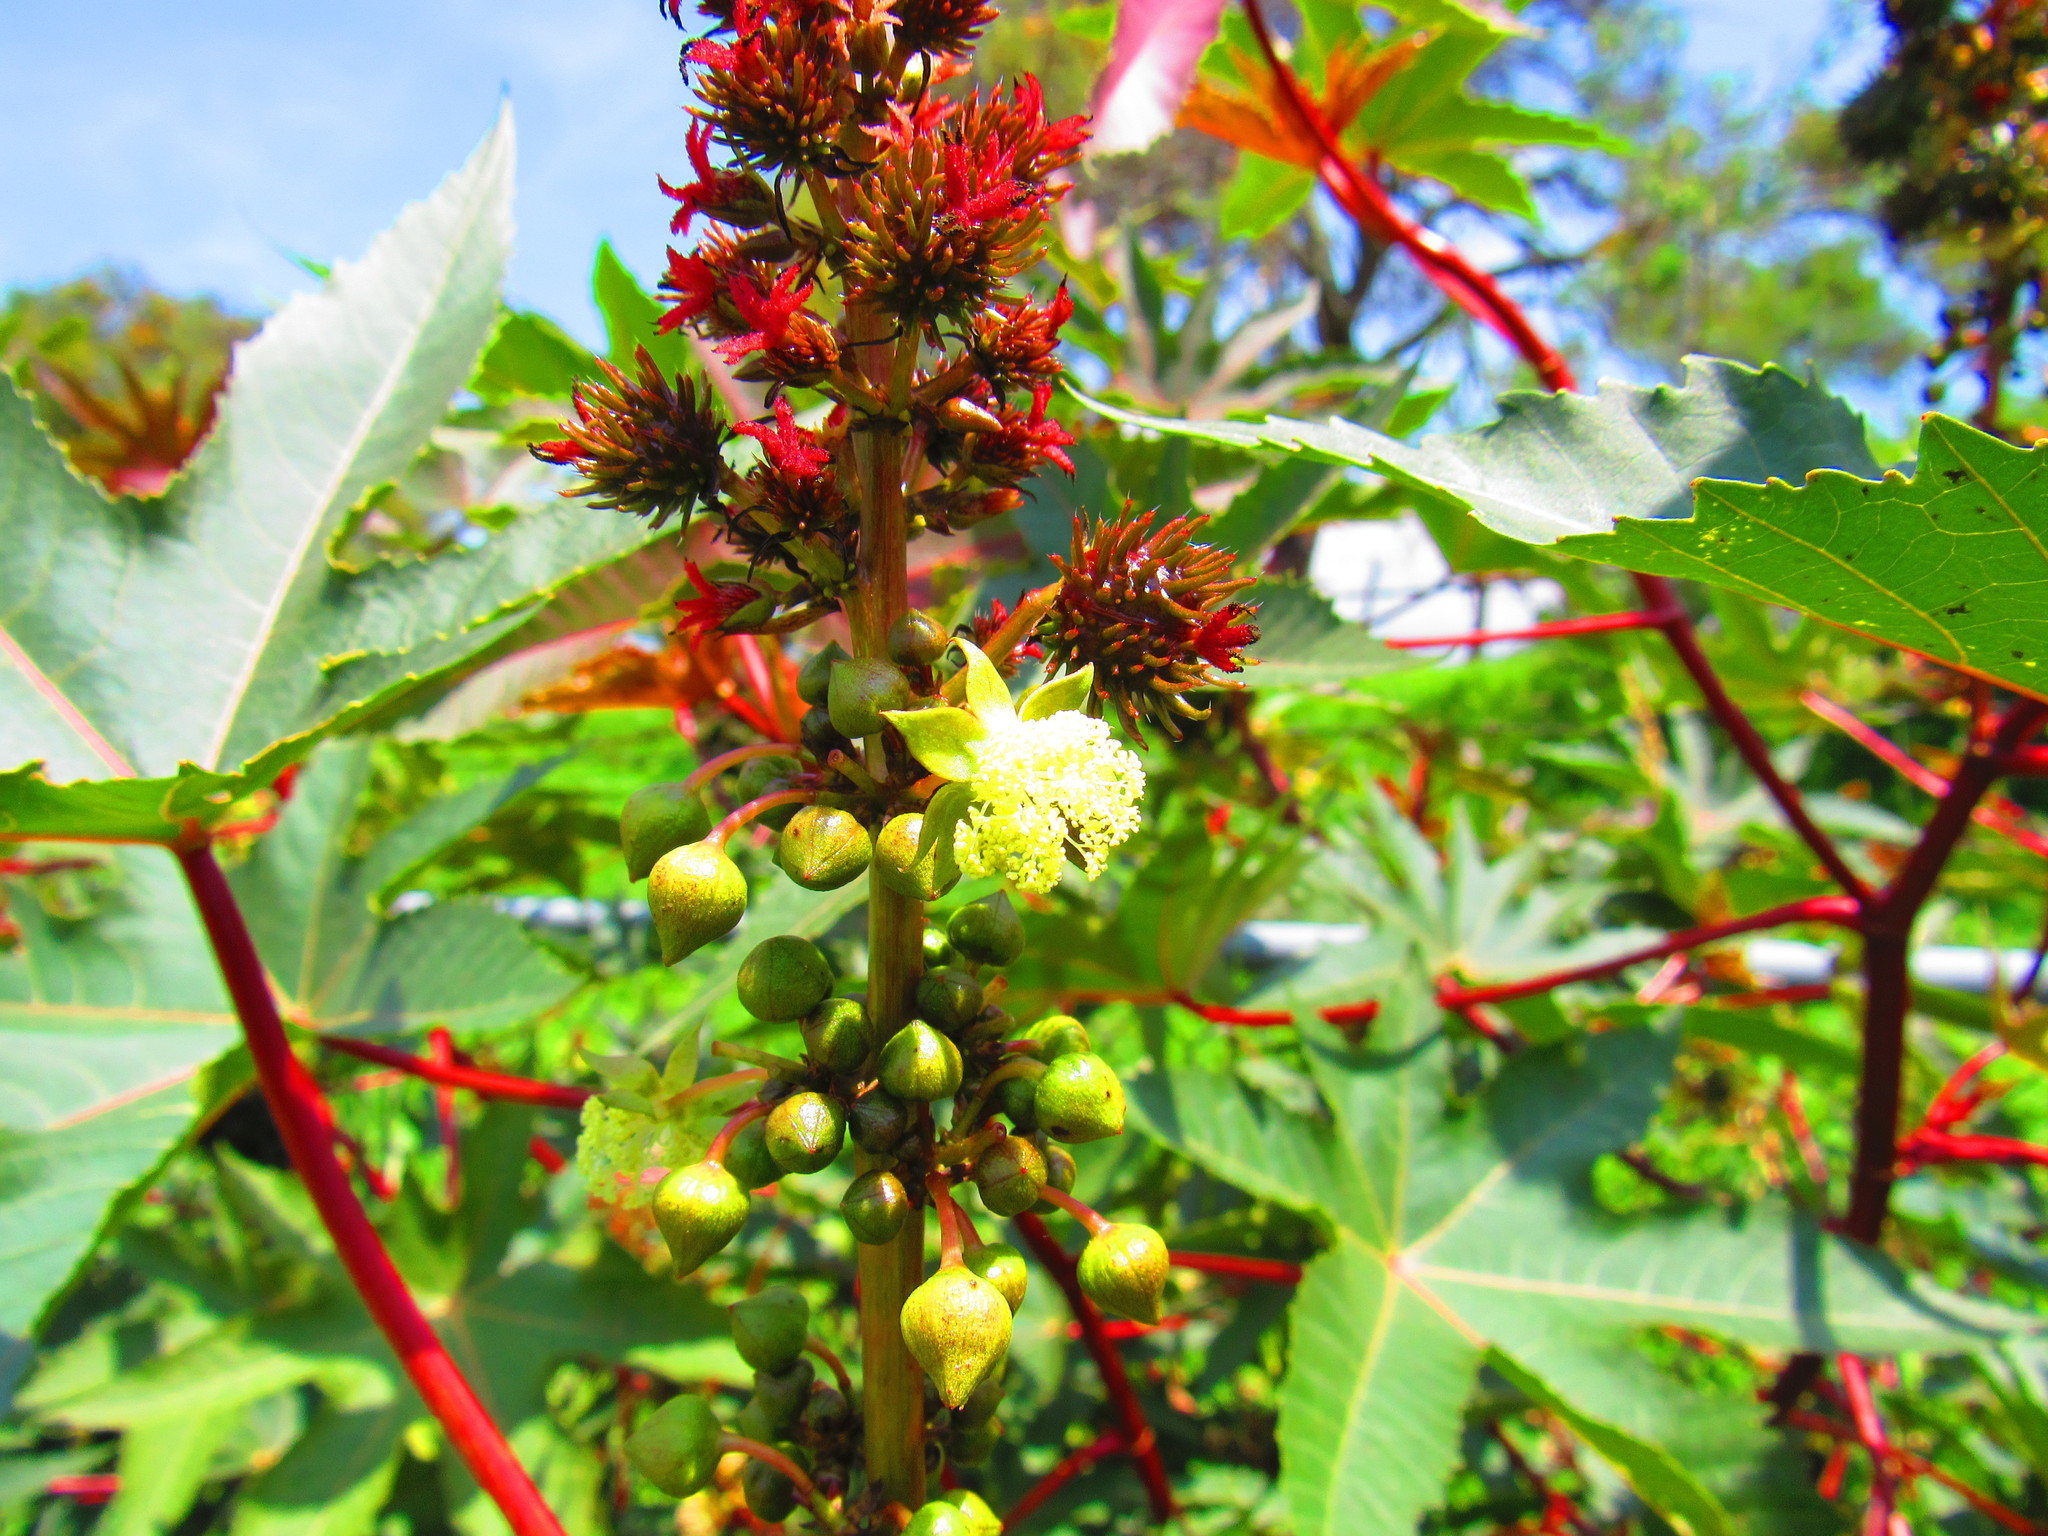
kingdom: Plantae
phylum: Tracheophyta
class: Magnoliopsida
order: Malpighiales
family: Euphorbiaceae
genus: Ricinus
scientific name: Ricinus communis
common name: Castor-oil-plant
